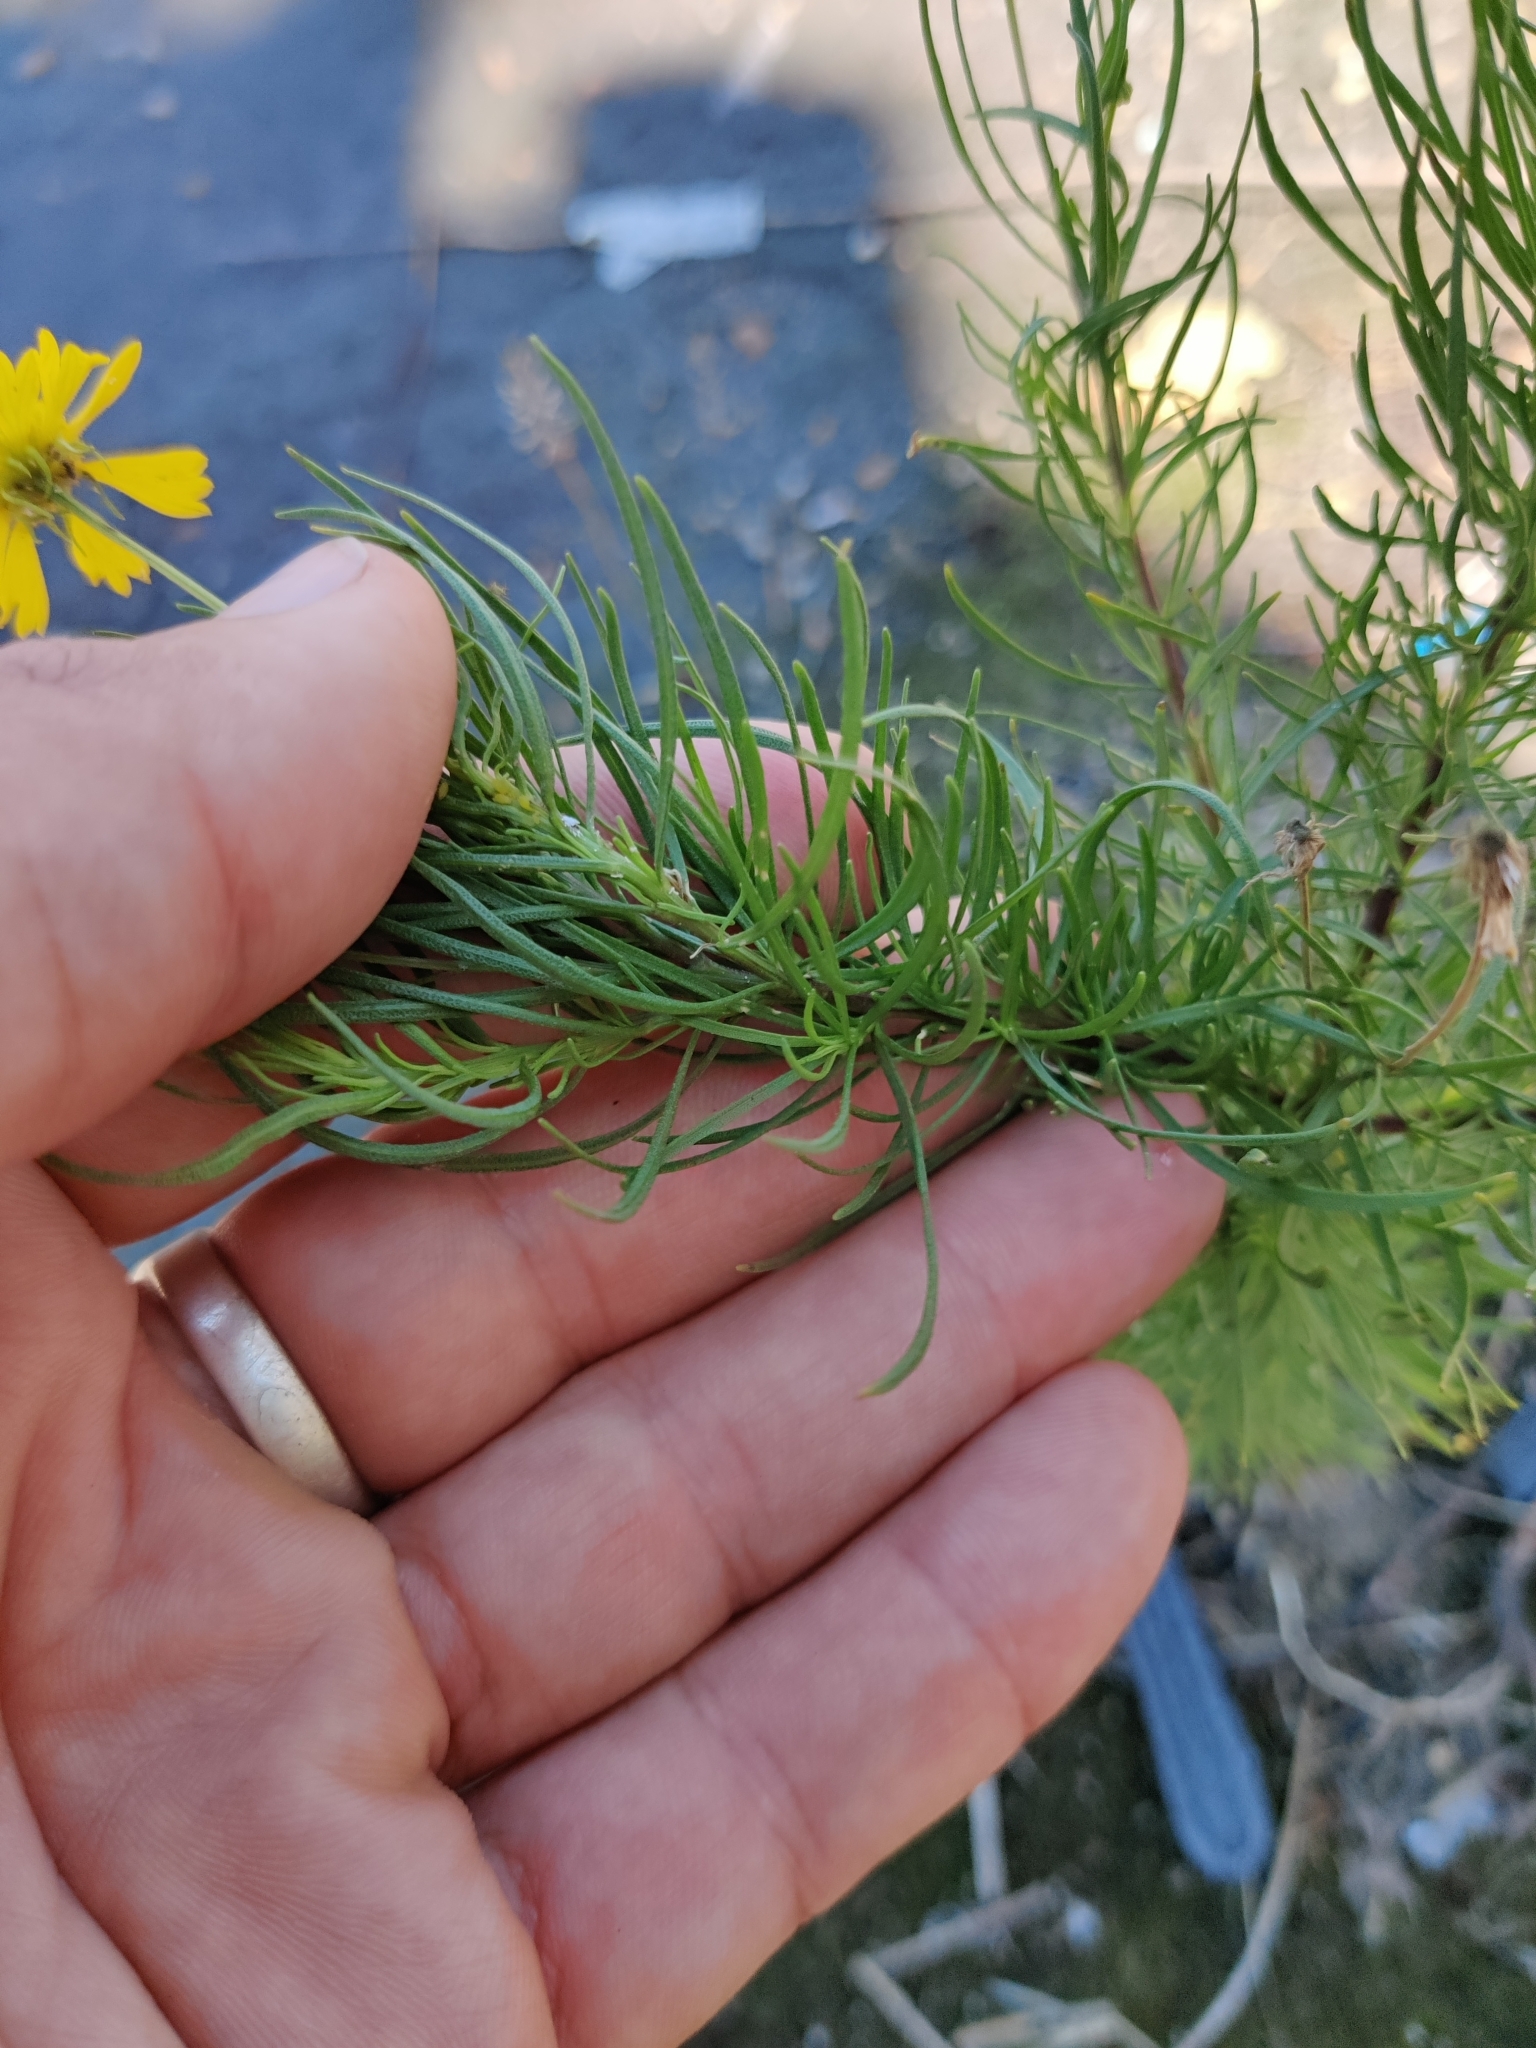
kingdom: Plantae
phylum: Tracheophyta
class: Magnoliopsida
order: Asterales
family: Asteraceae
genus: Helenium
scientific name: Helenium amarum
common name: Bitter sneezeweed
